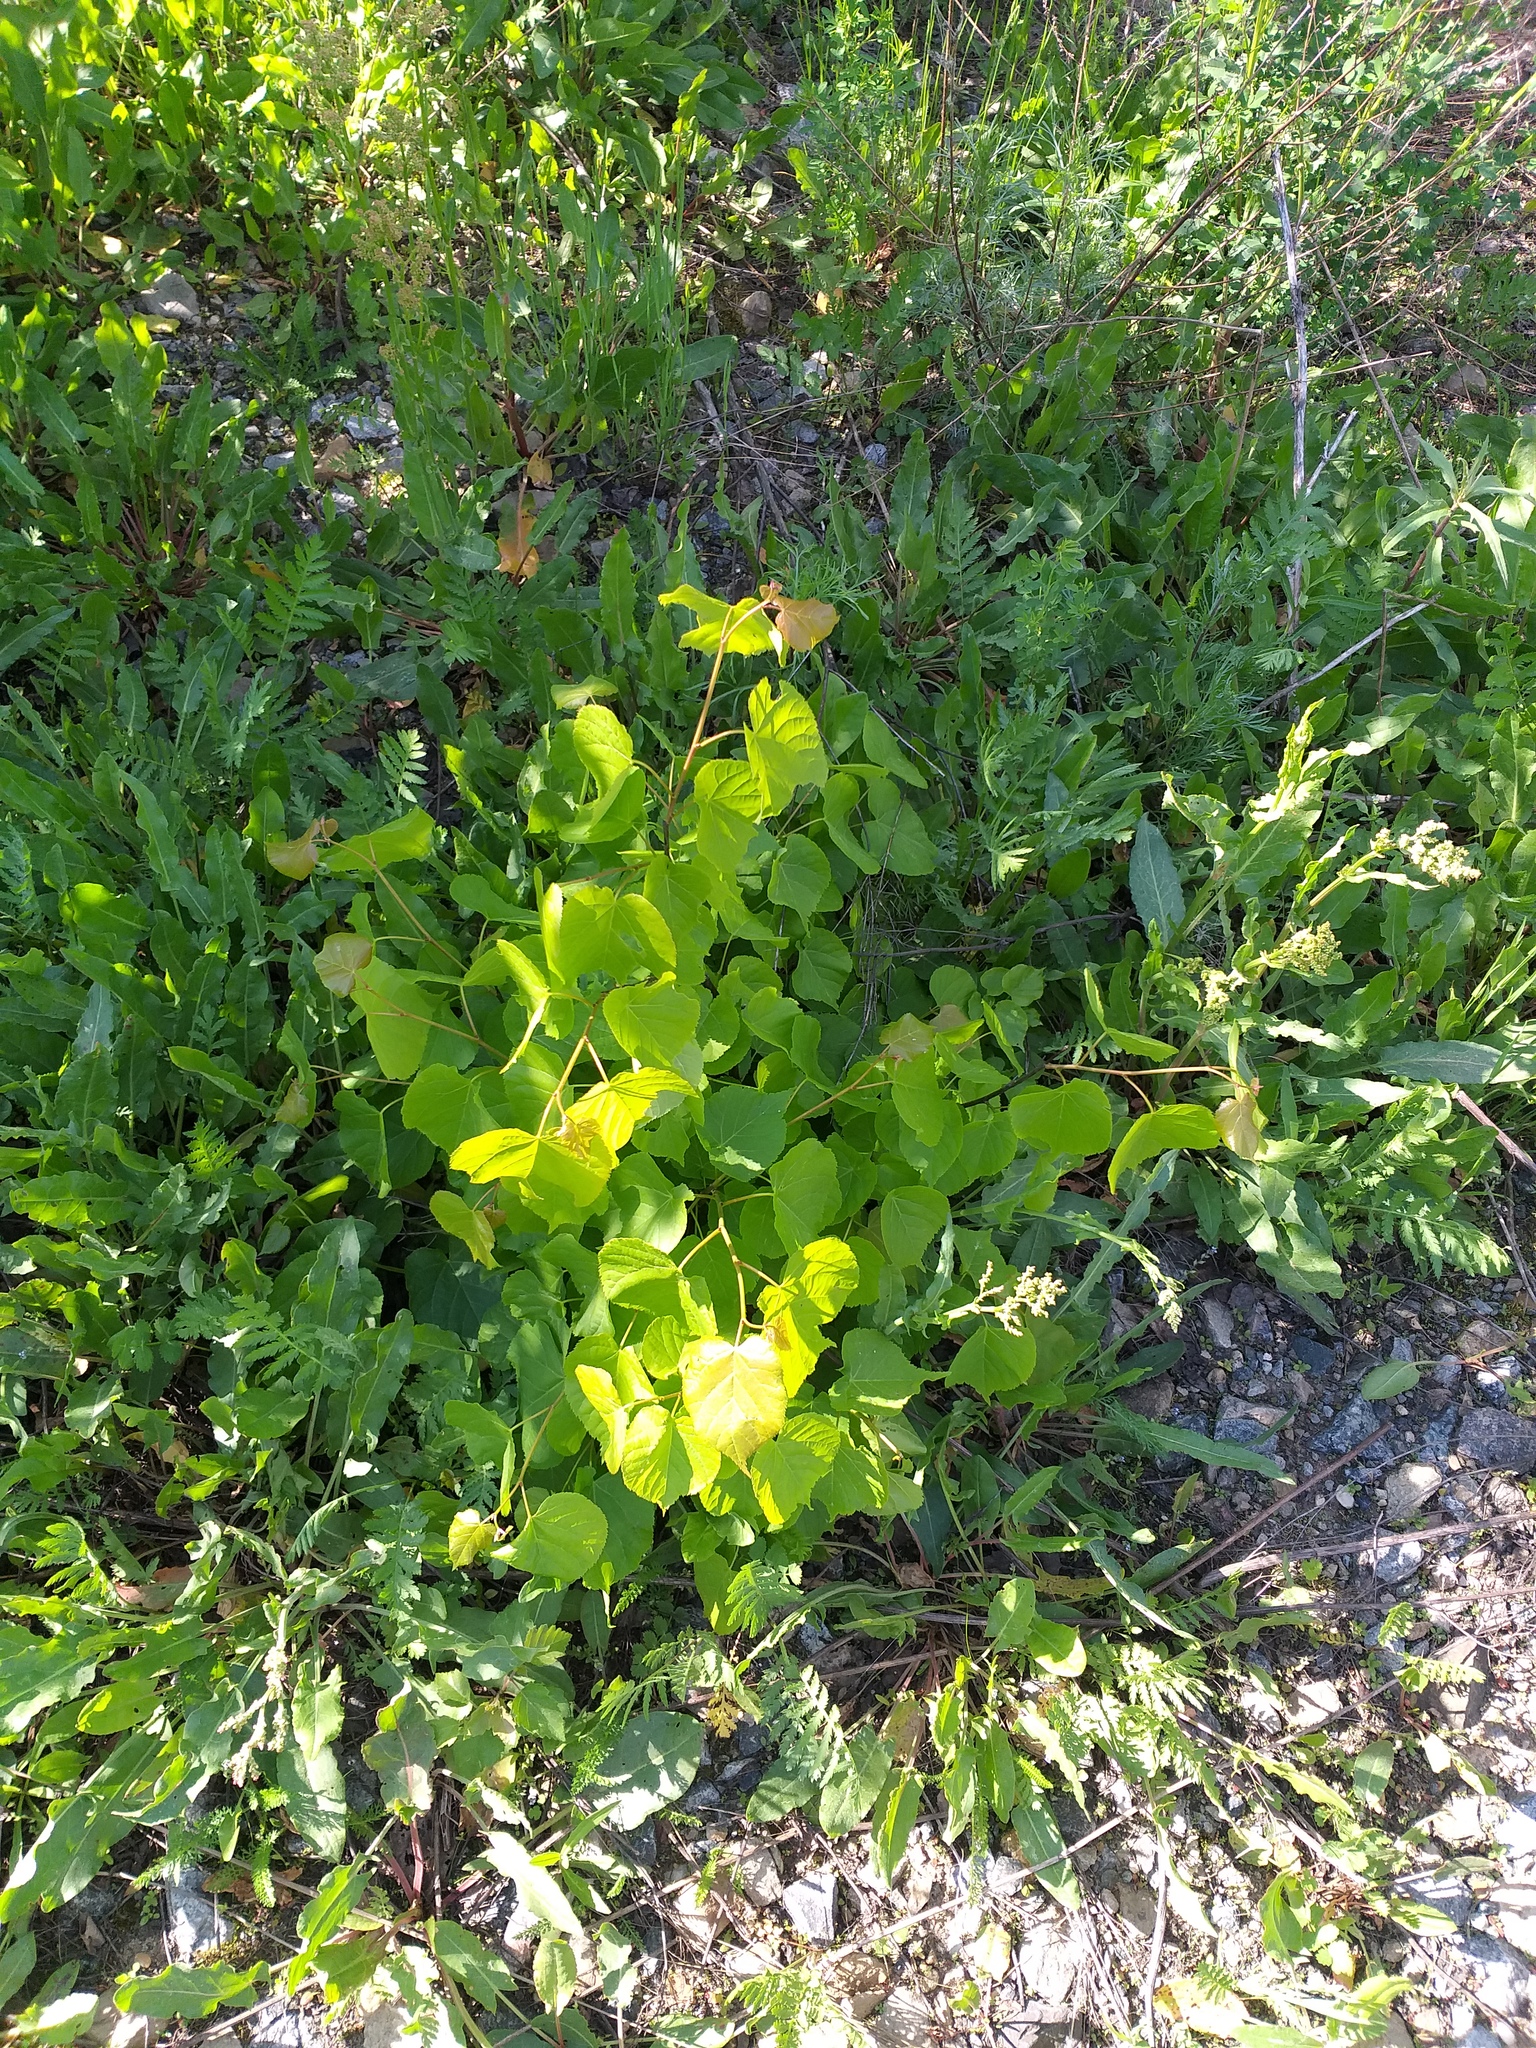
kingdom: Plantae
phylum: Tracheophyta
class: Magnoliopsida
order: Malvales
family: Malvaceae
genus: Tilia
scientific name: Tilia cordata
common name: Small-leaved lime
